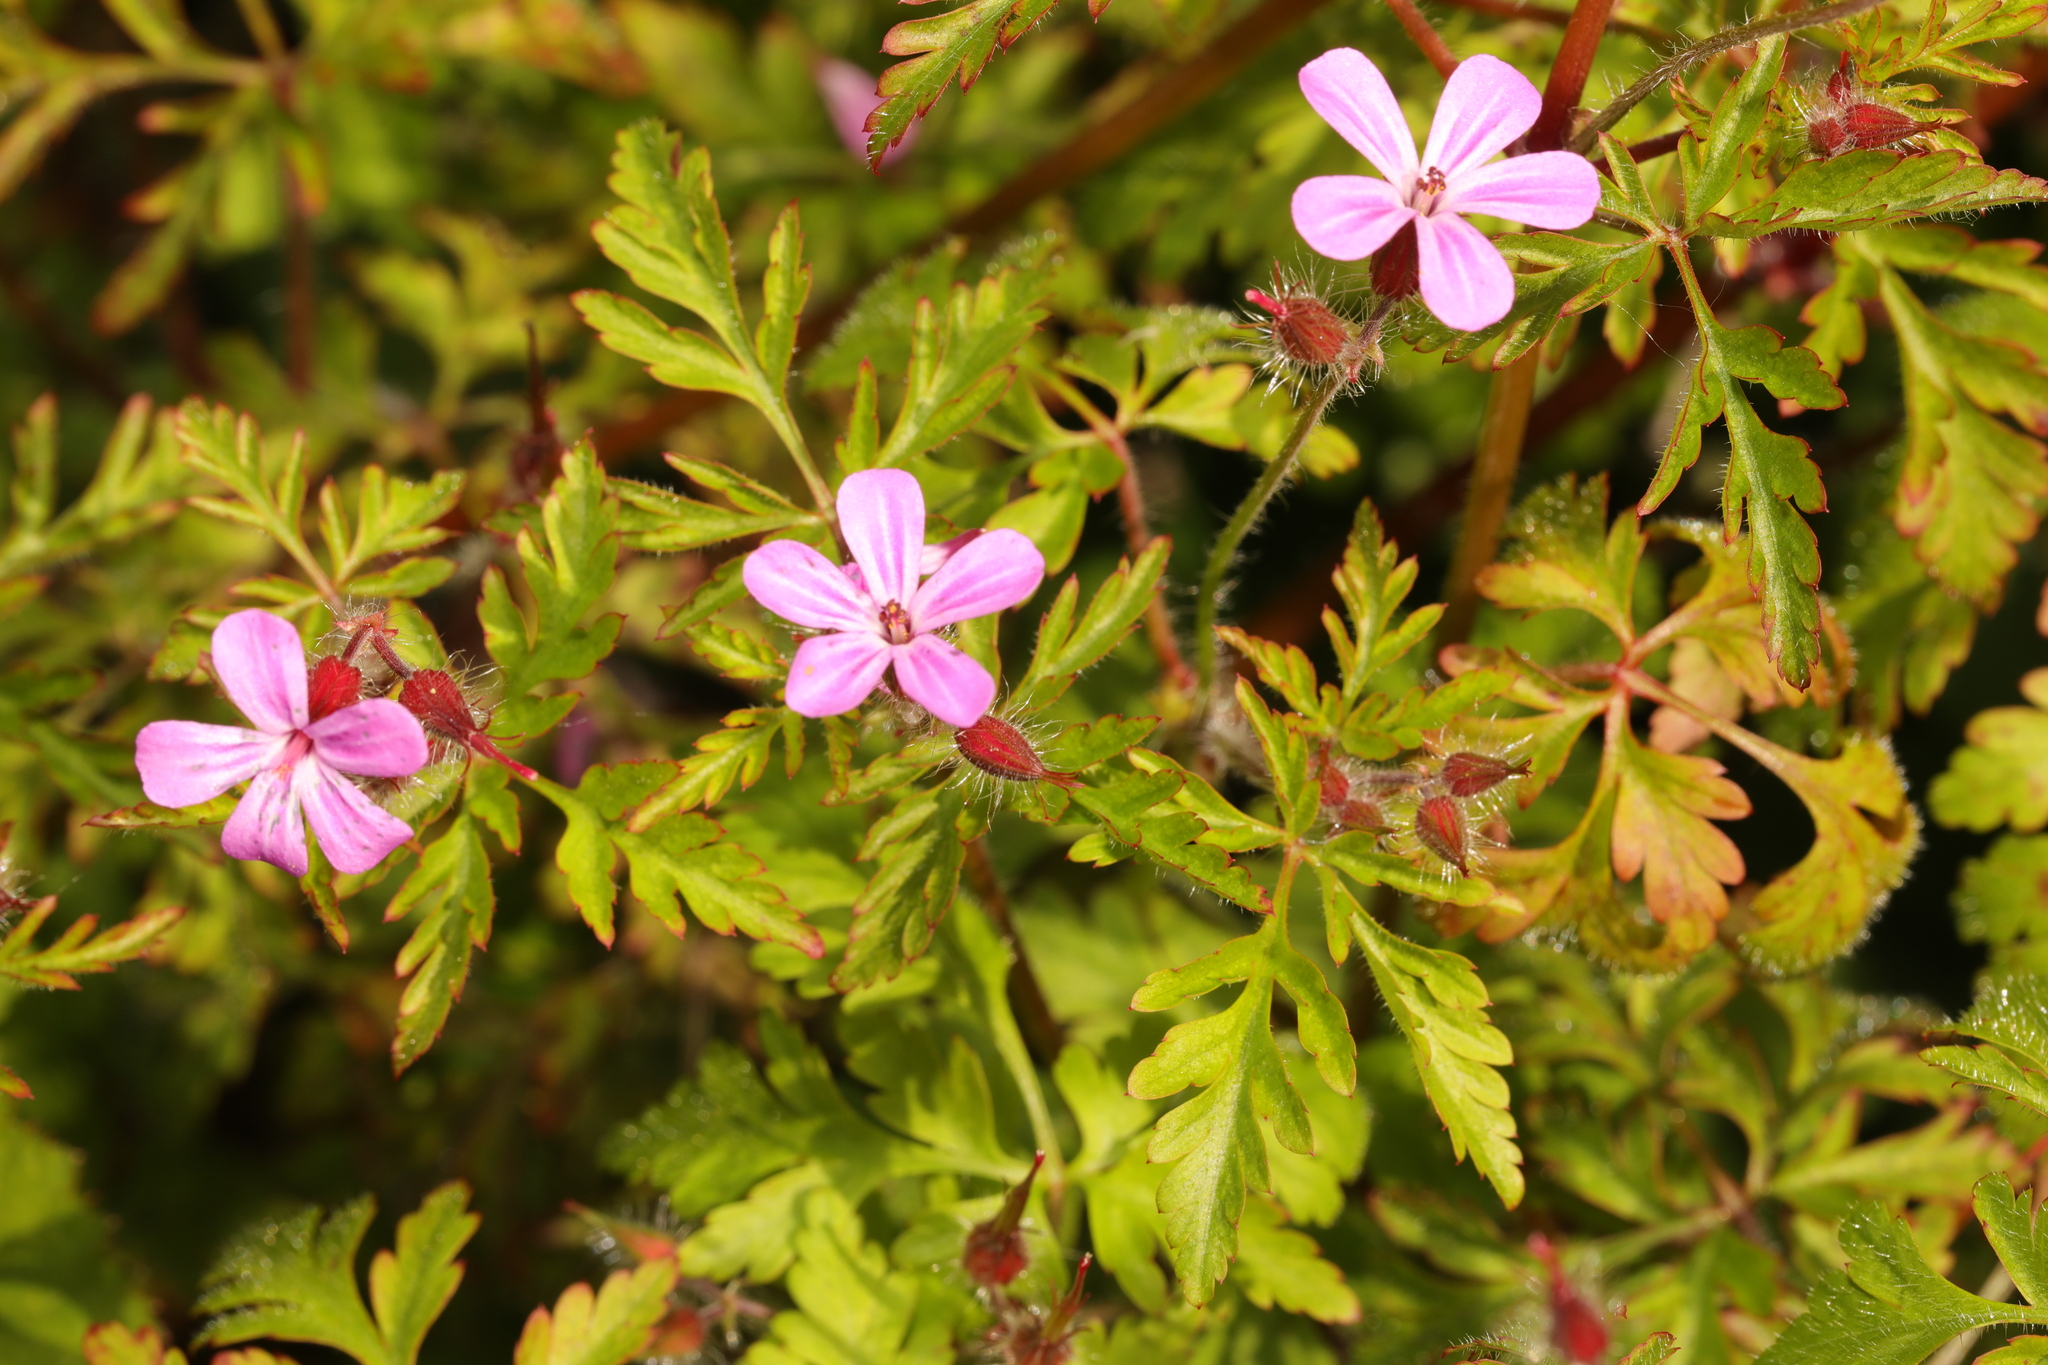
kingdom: Plantae
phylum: Tracheophyta
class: Magnoliopsida
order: Geraniales
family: Geraniaceae
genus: Geranium
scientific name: Geranium robertianum
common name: Herb-robert
